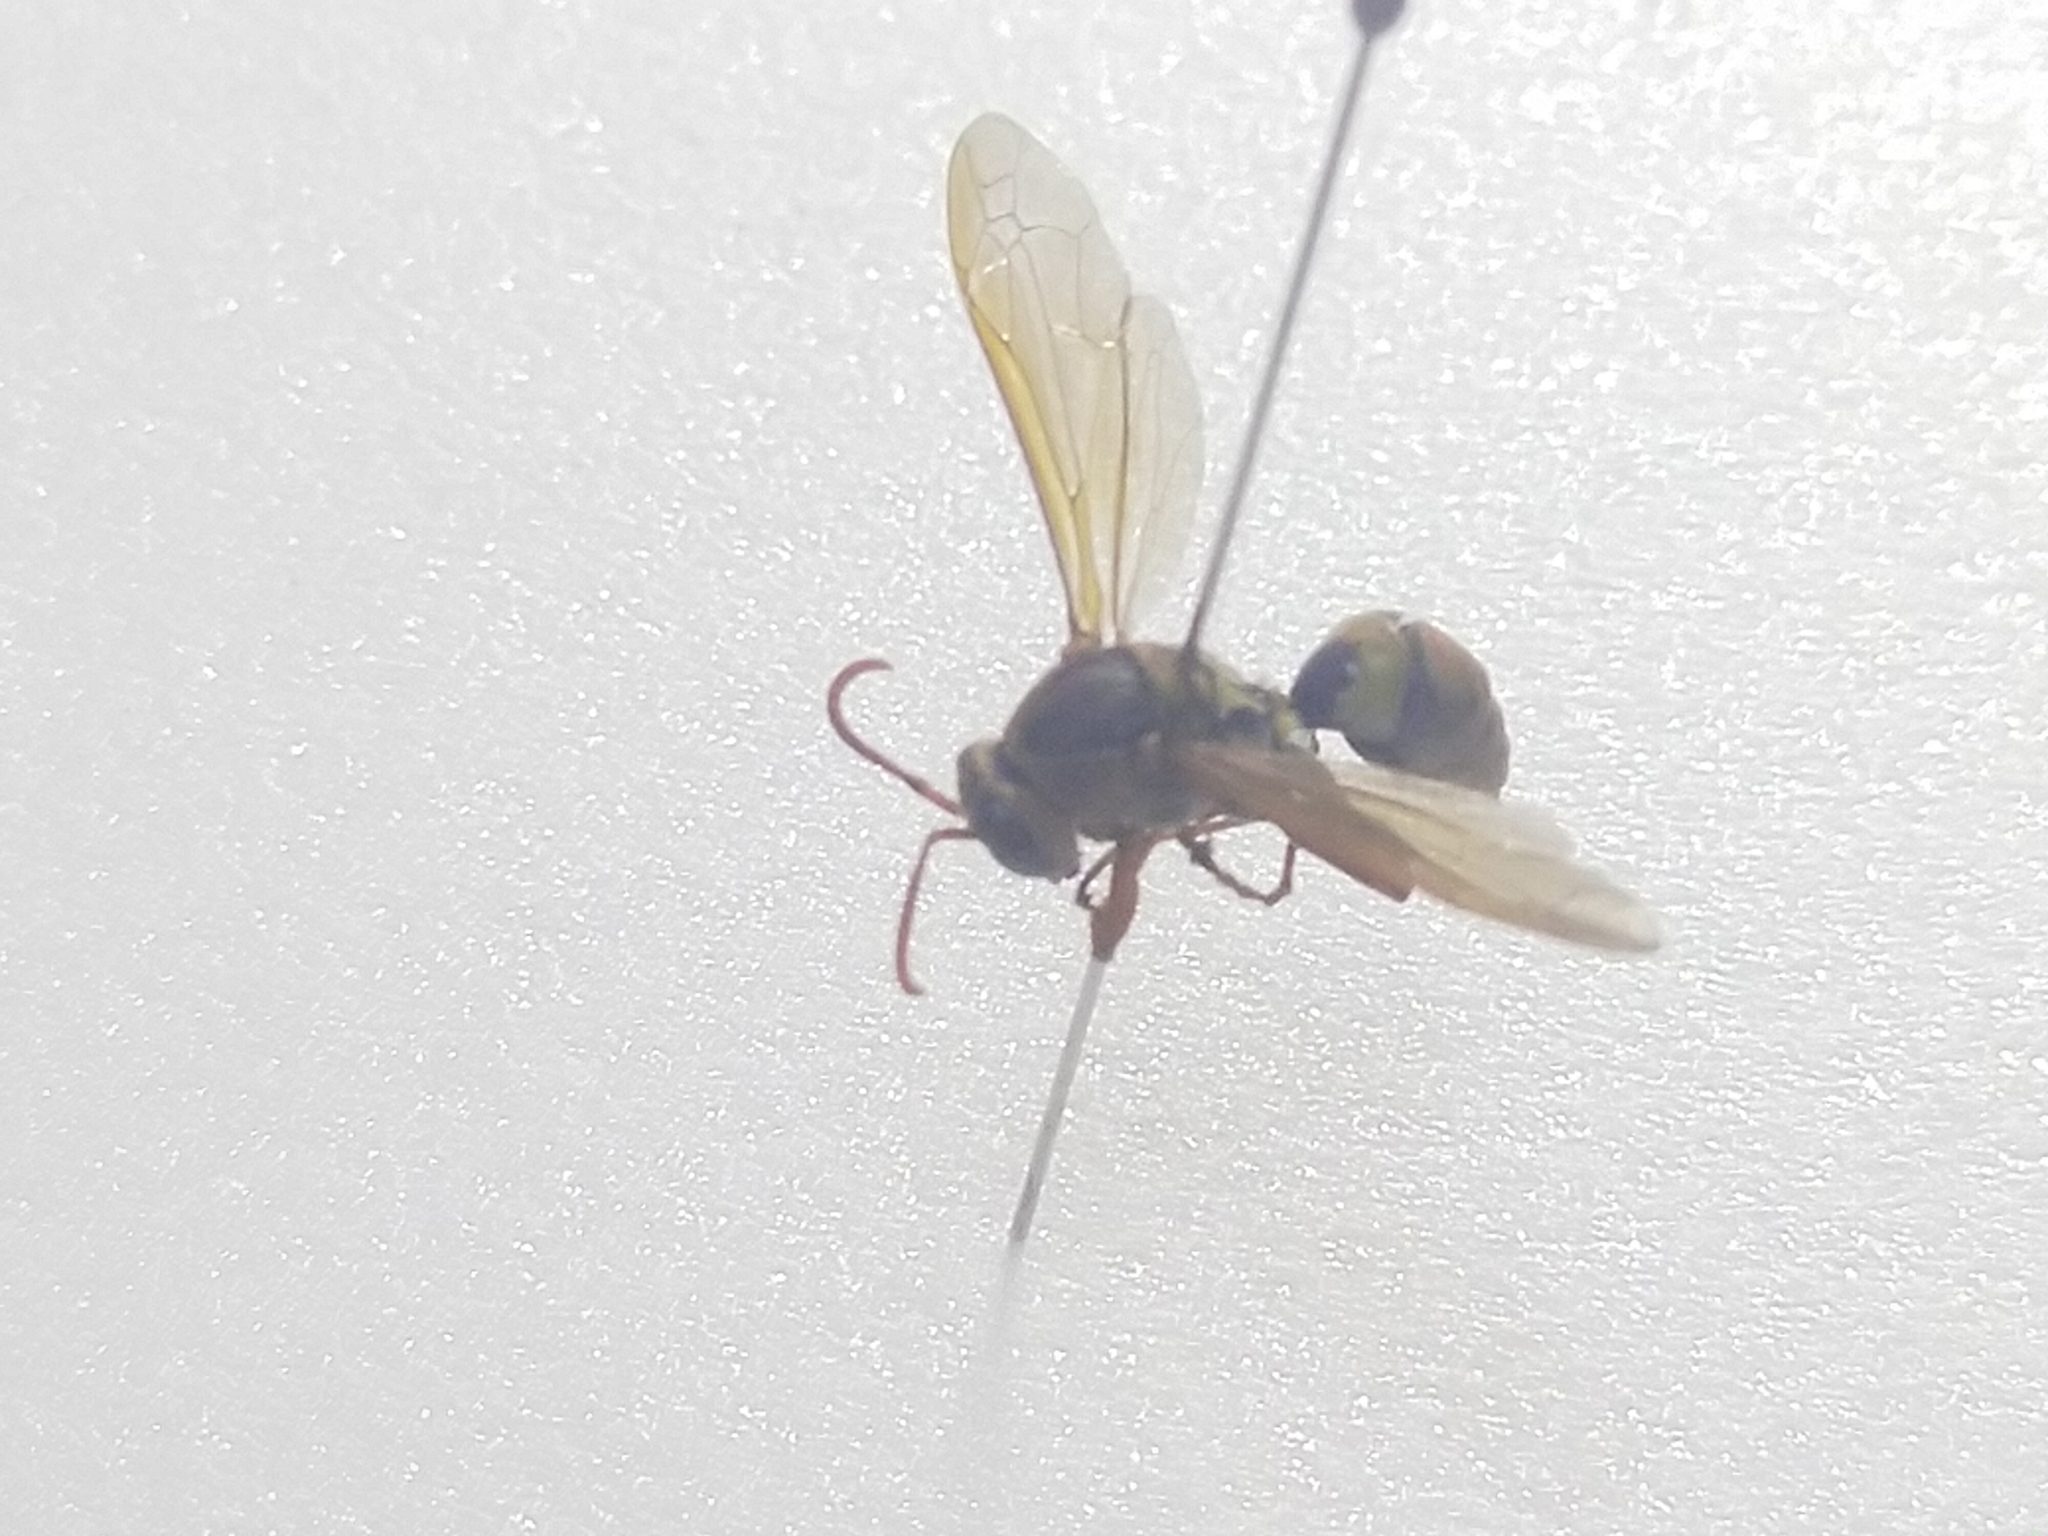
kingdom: Animalia
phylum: Arthropoda
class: Insecta
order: Hymenoptera
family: Eumenidae
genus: Polistes
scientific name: Polistes rothneyi
